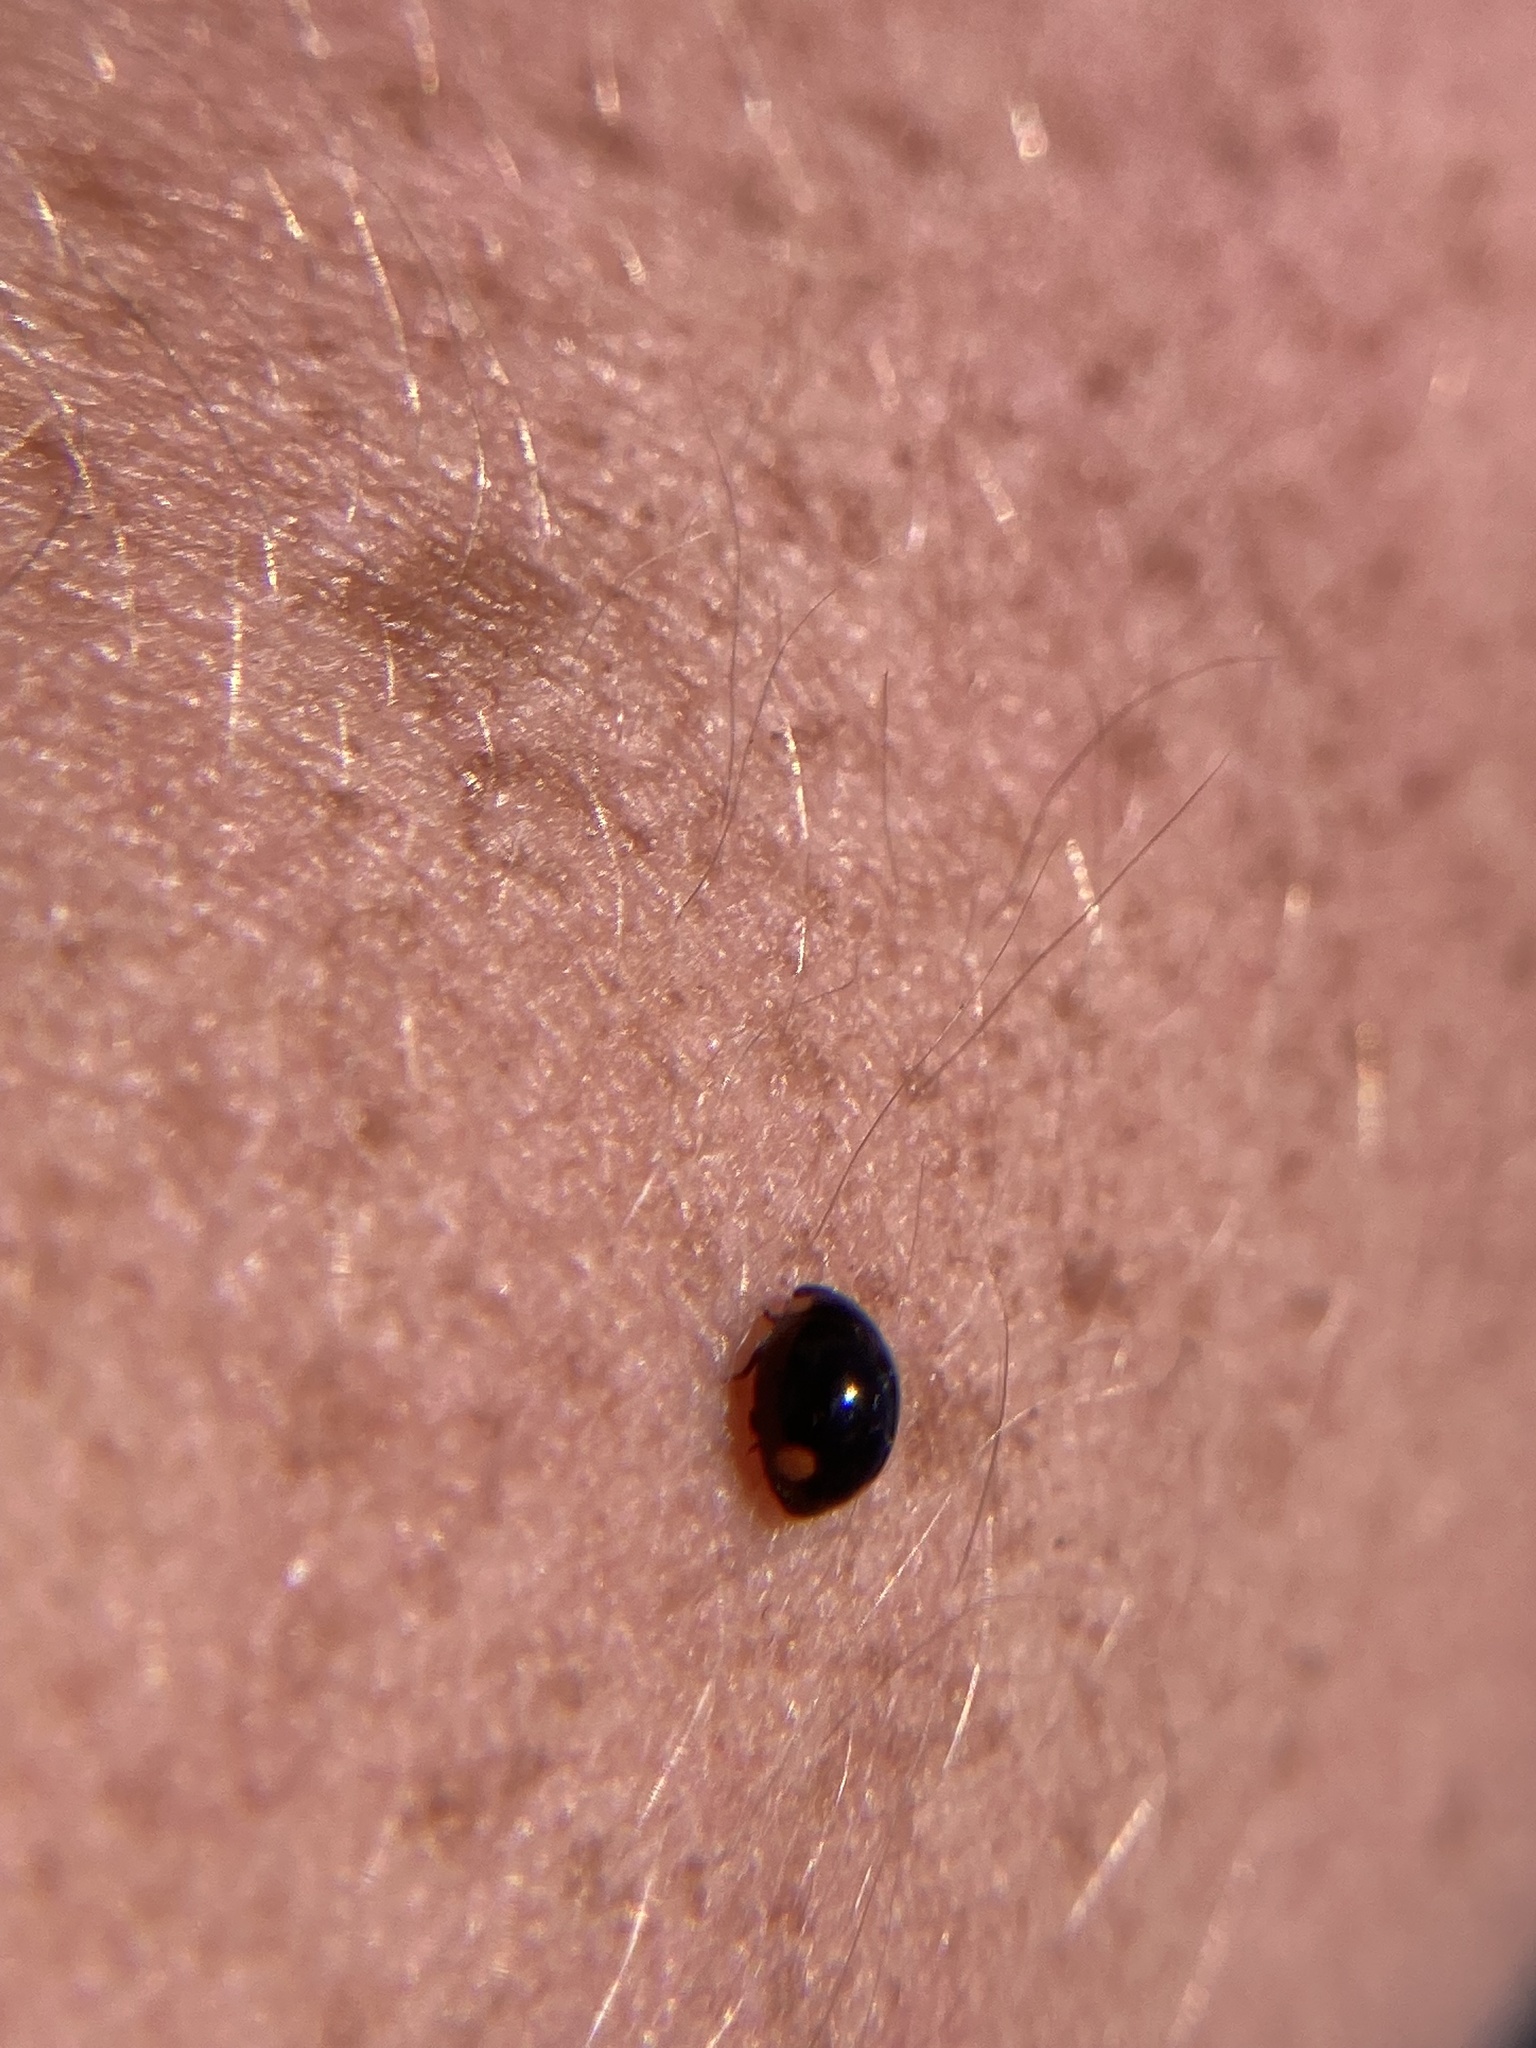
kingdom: Animalia
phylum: Arthropoda
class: Insecta
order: Coleoptera
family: Coccinellidae
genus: Hyperaspis
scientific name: Hyperaspis bigeminata
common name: Bigeminate sigil lady beetle
